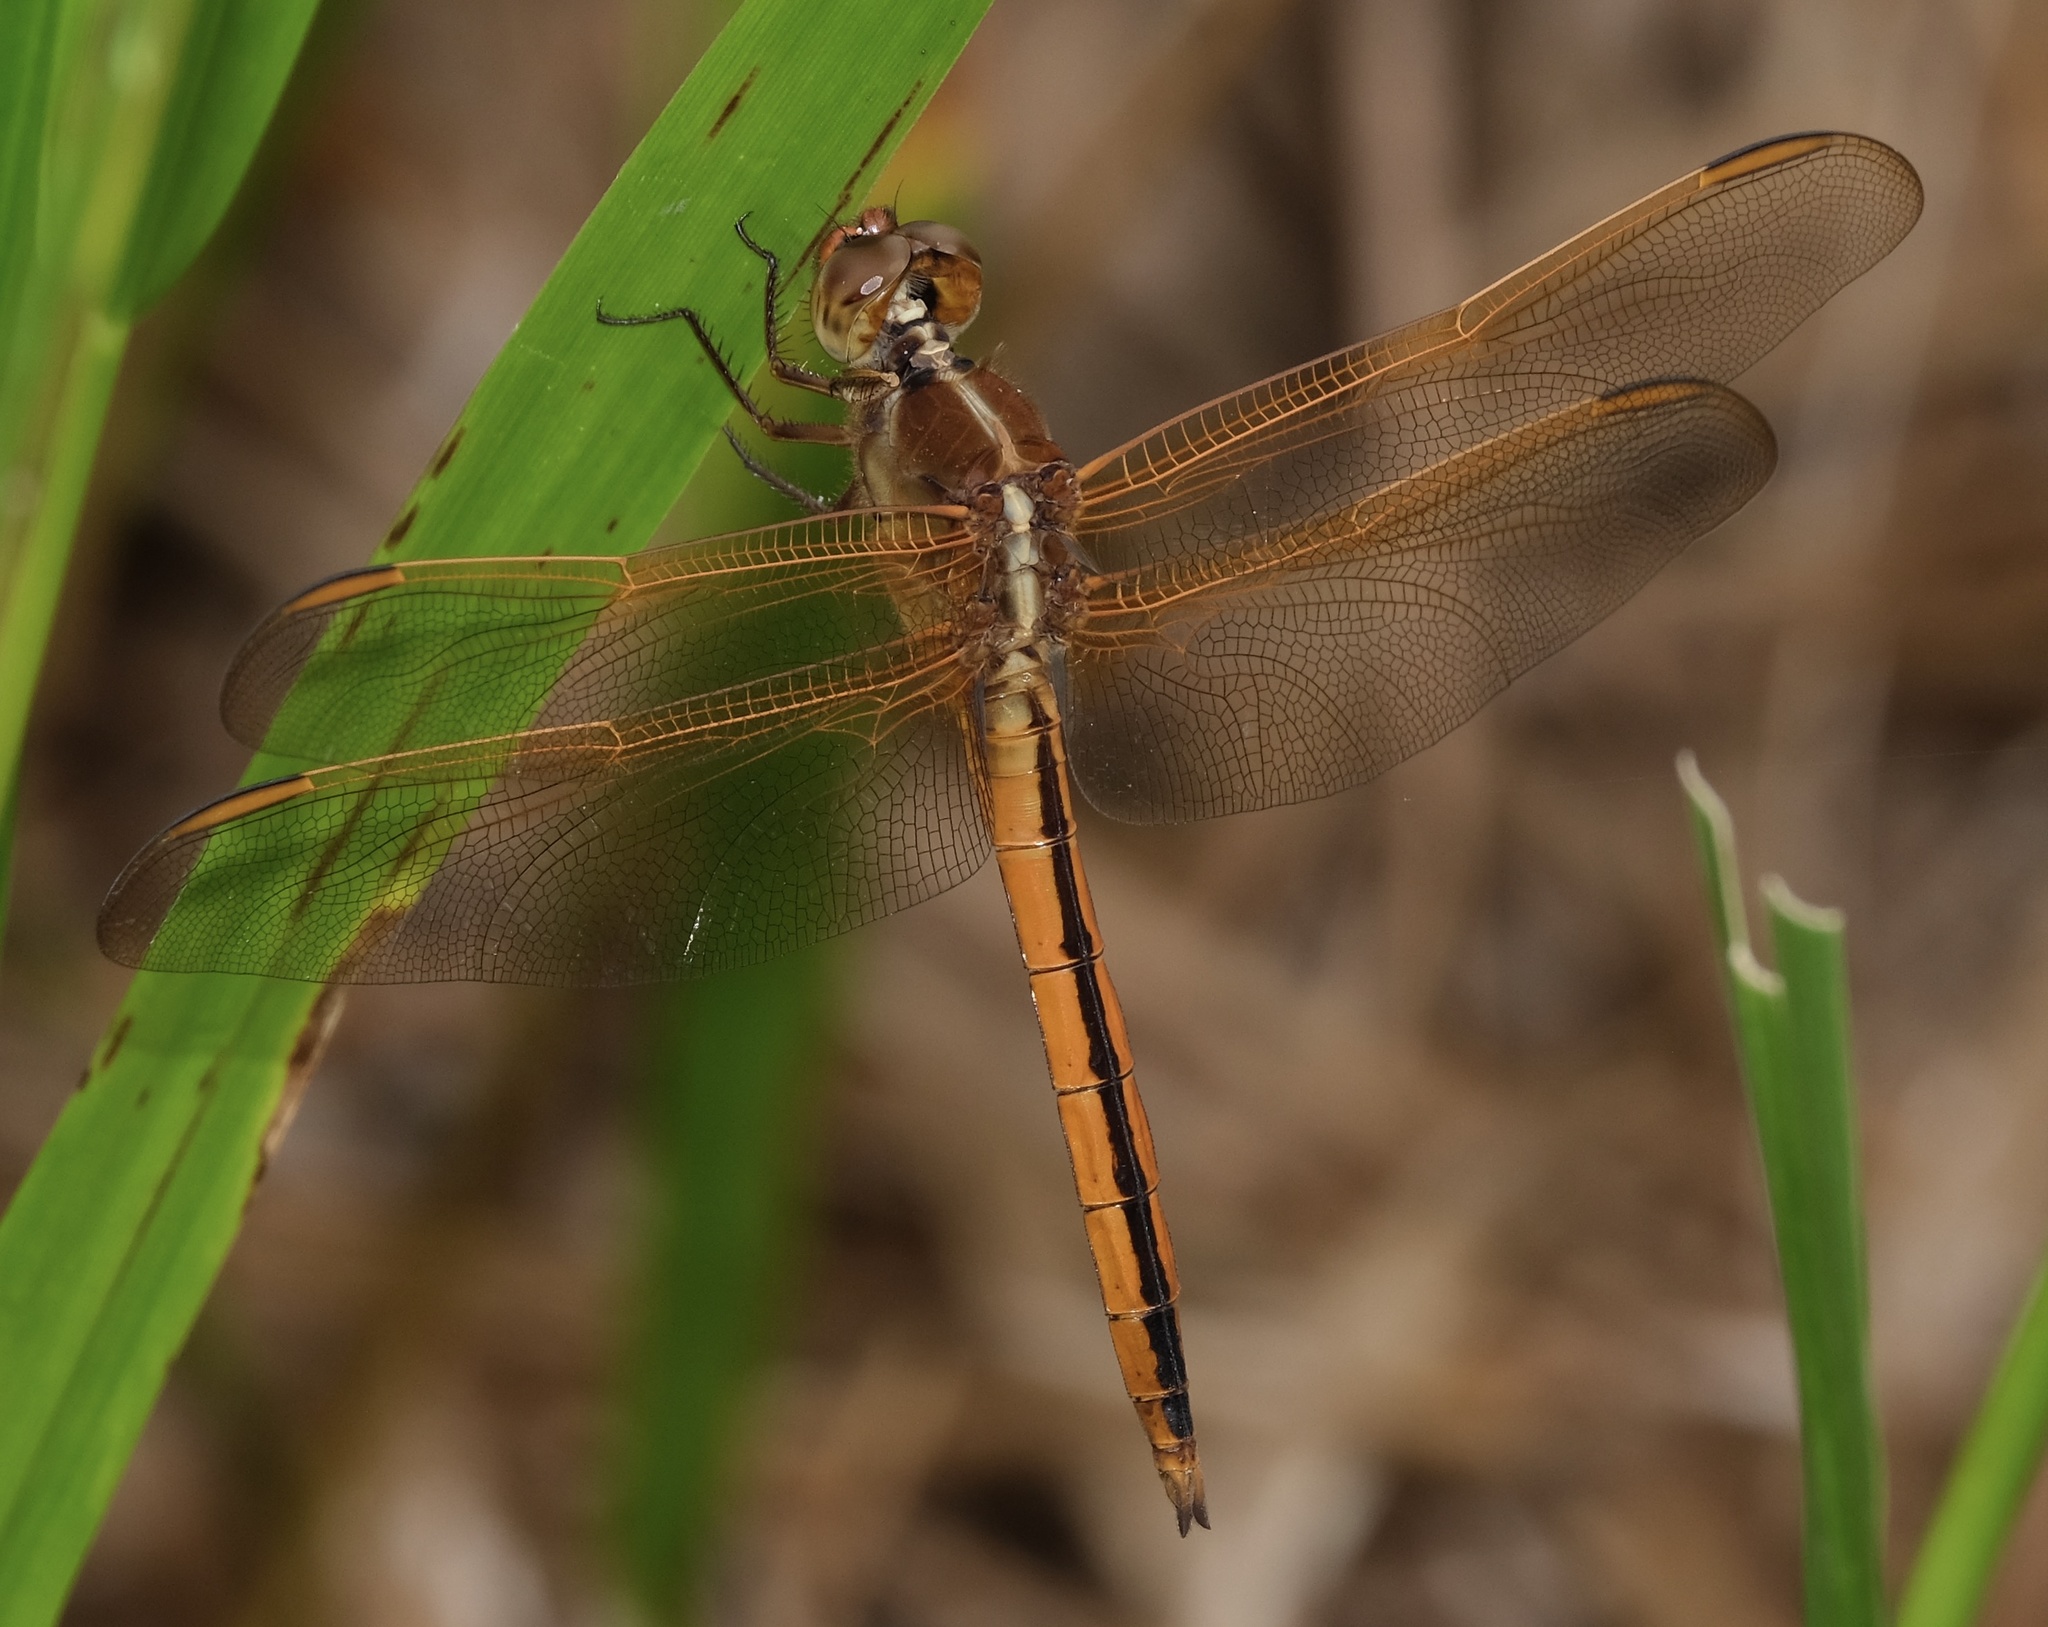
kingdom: Animalia
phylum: Arthropoda
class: Insecta
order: Odonata
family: Libellulidae
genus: Libellula
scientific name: Libellula needhami
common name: Needham's skimmer
